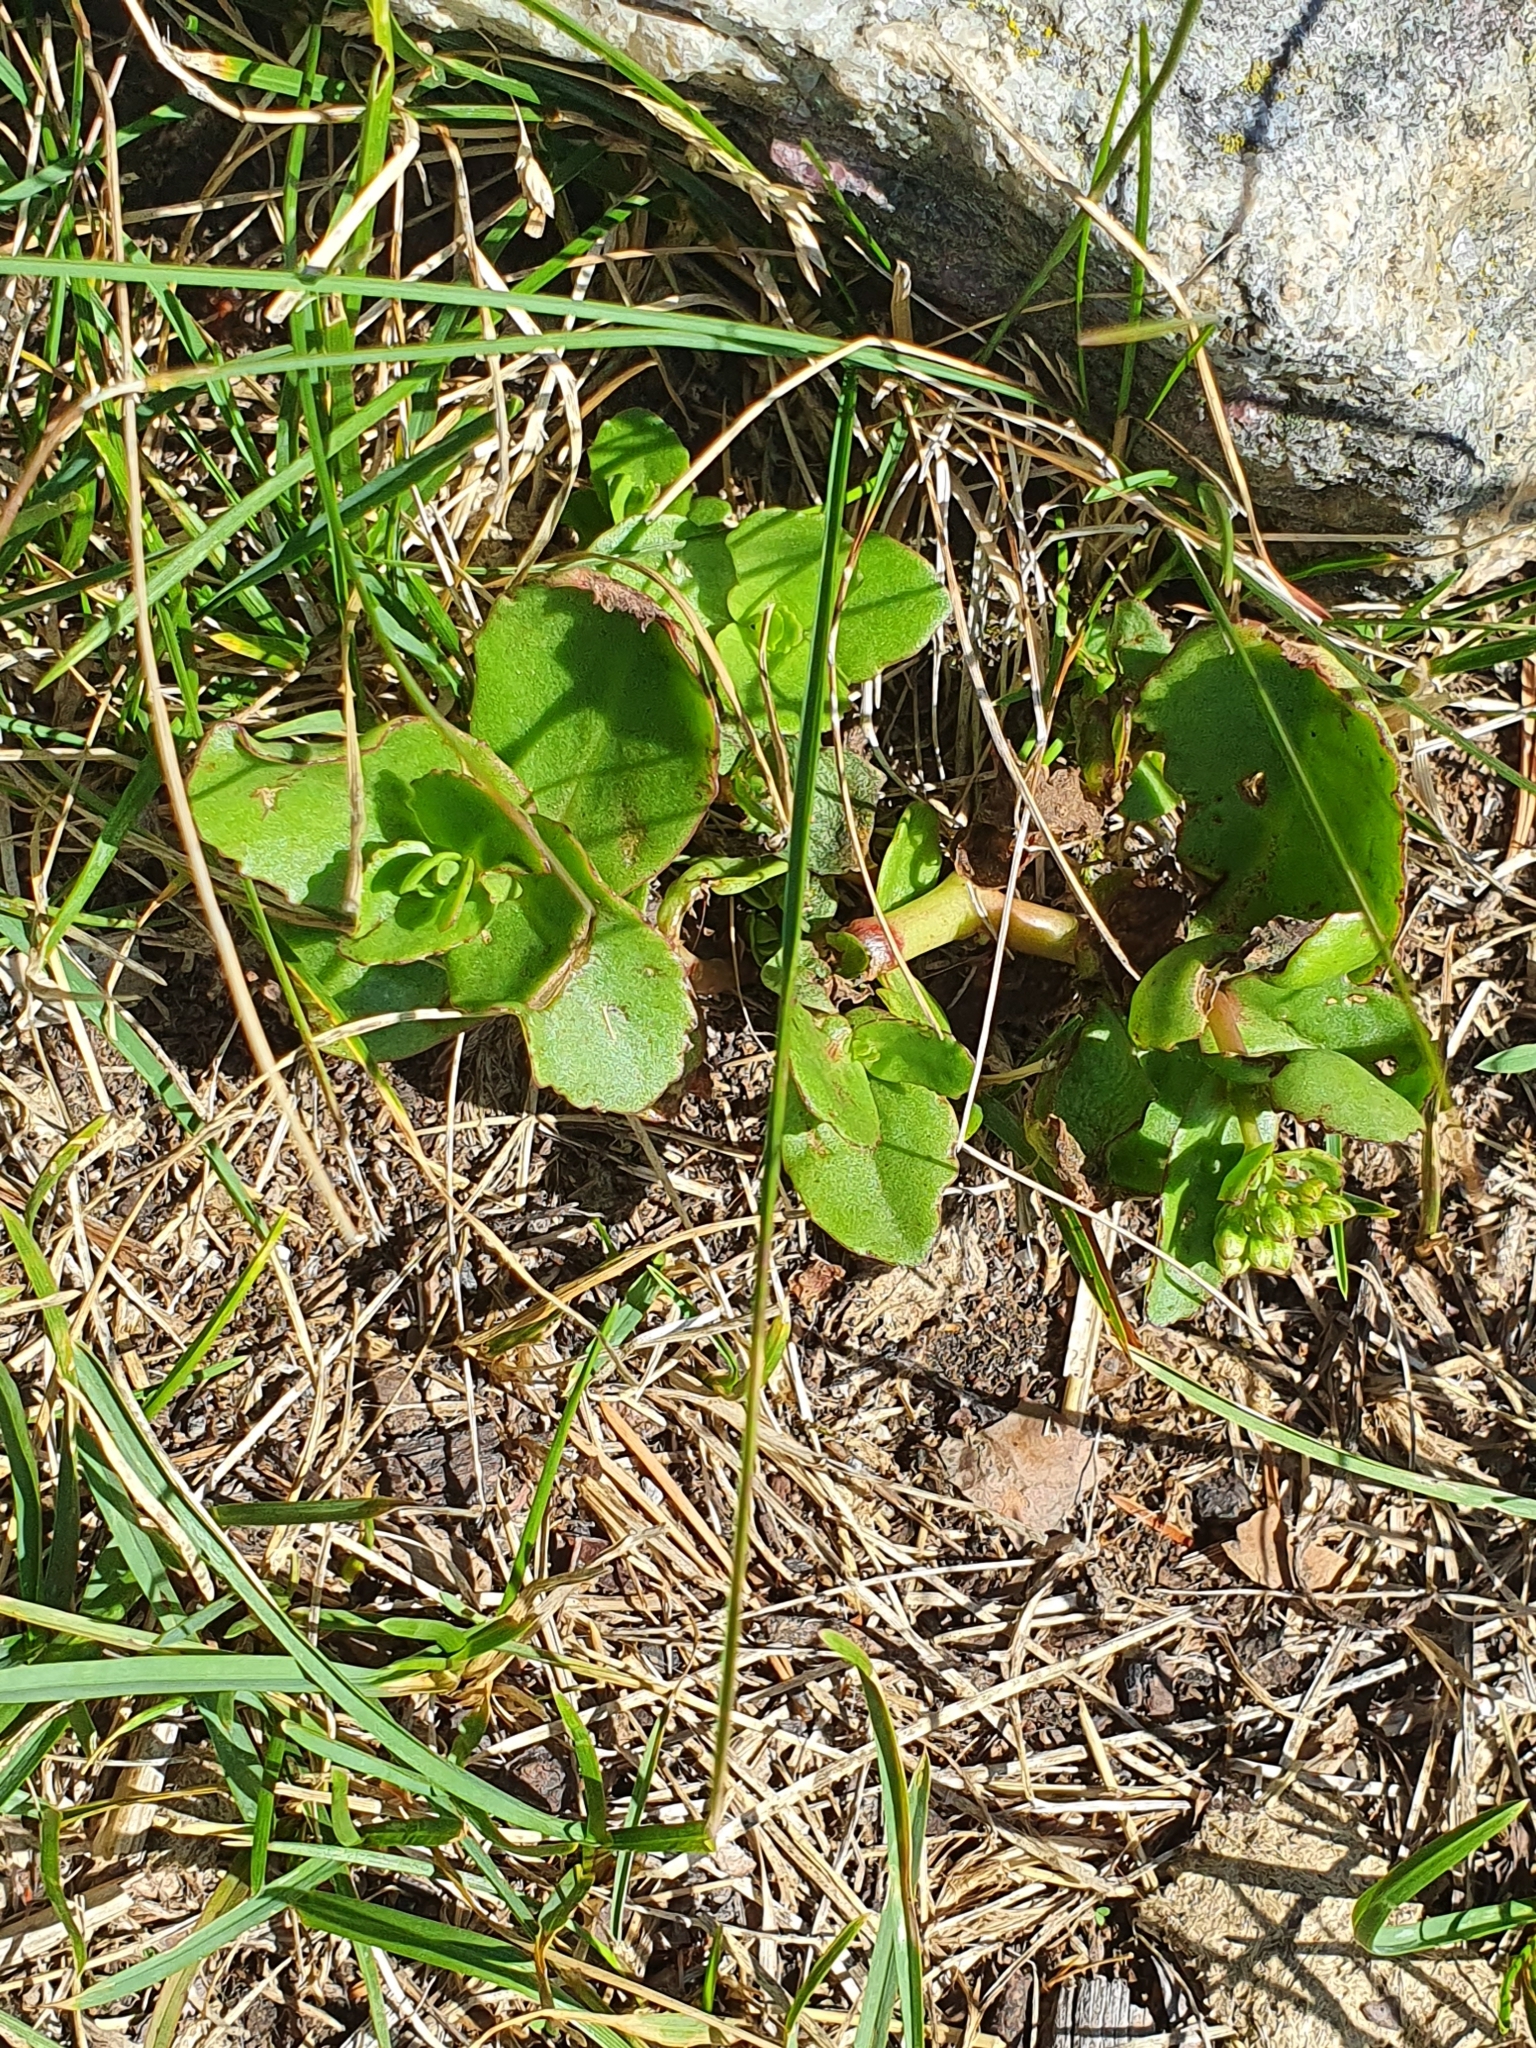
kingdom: Plantae
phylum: Tracheophyta
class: Magnoliopsida
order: Saxifragales
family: Crassulaceae
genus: Hylotelephium
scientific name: Hylotelephium maximum
